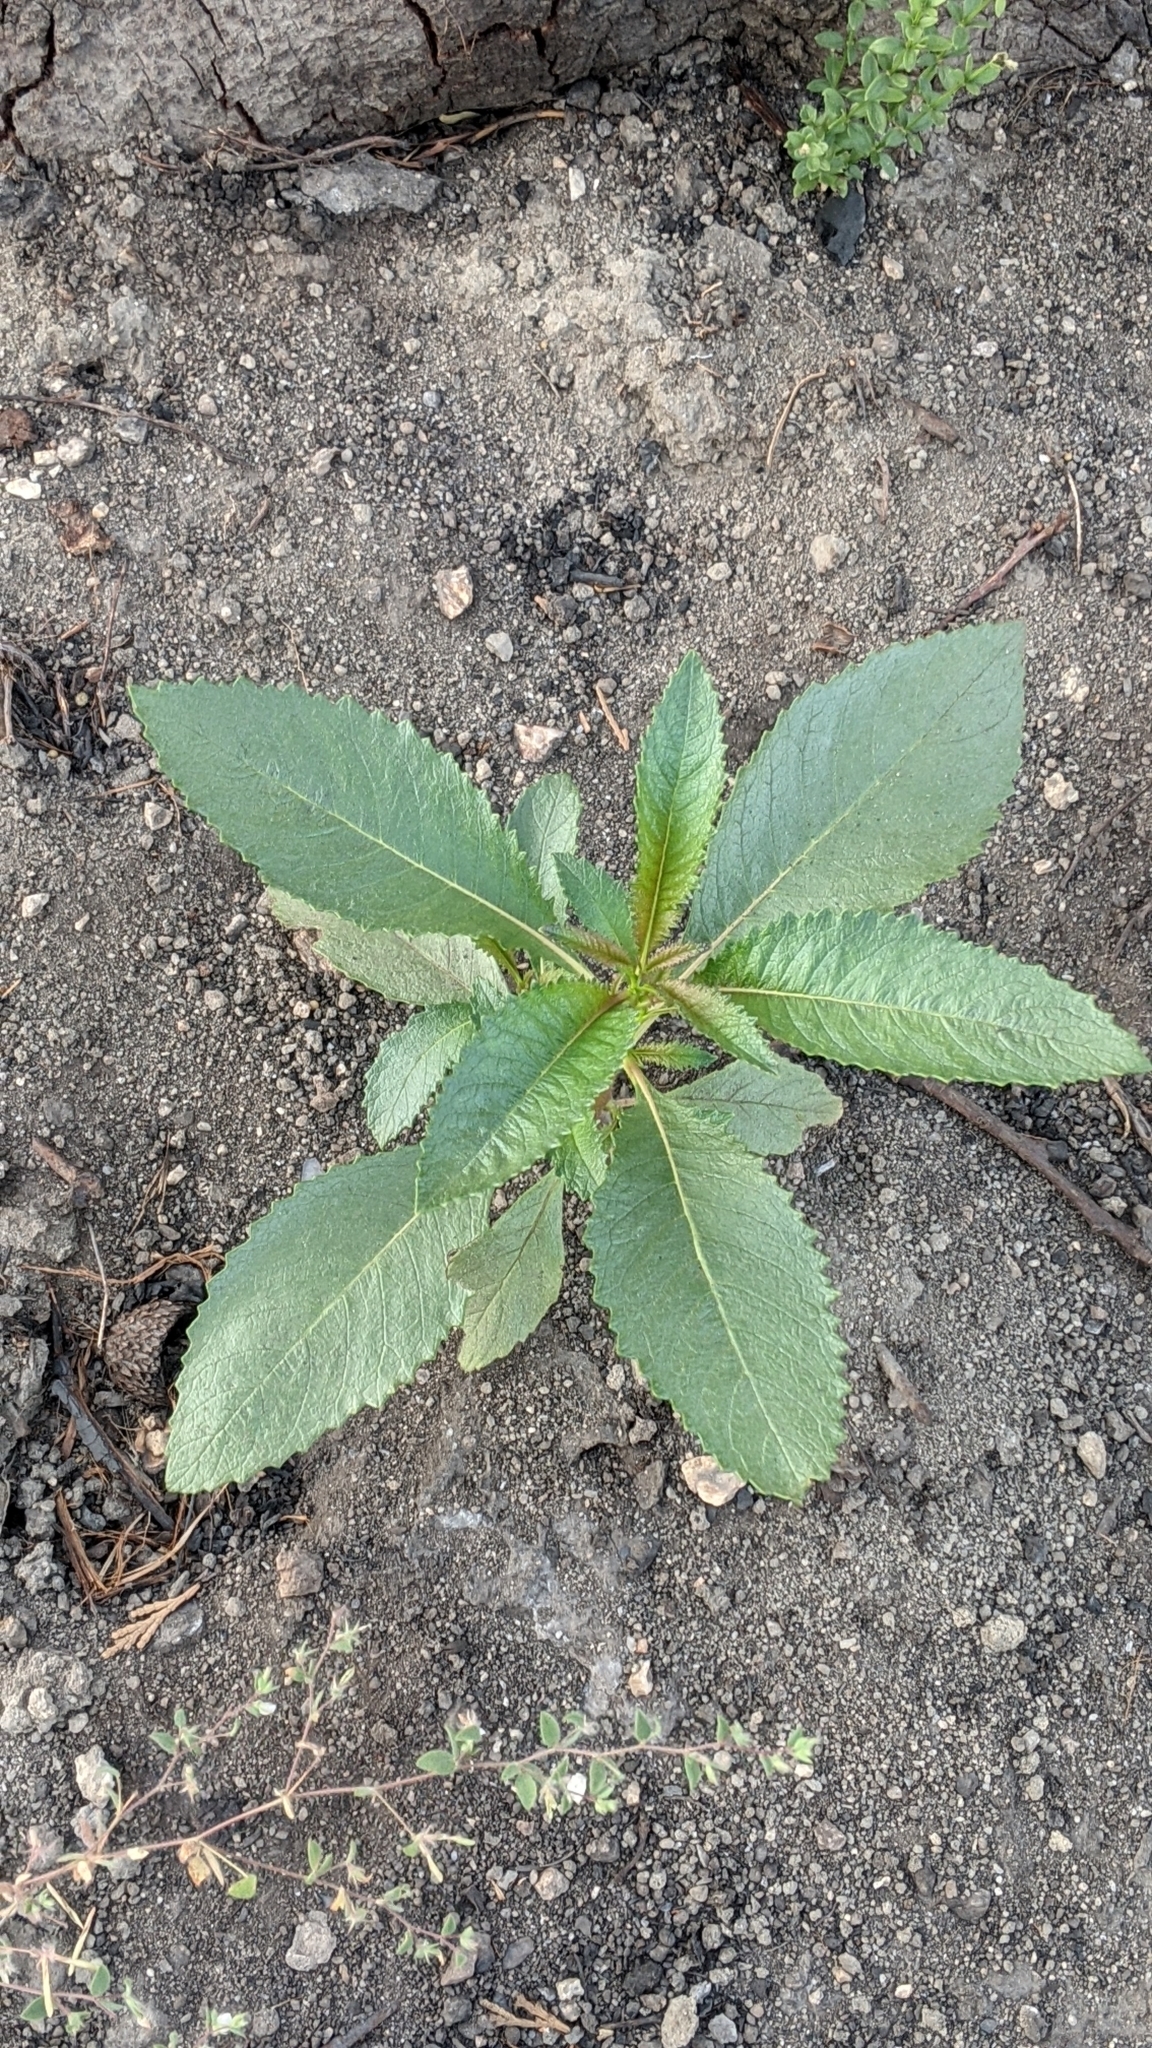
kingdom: Plantae
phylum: Tracheophyta
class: Magnoliopsida
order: Boraginales
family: Namaceae
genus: Eriodictyon
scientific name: Eriodictyon californicum
